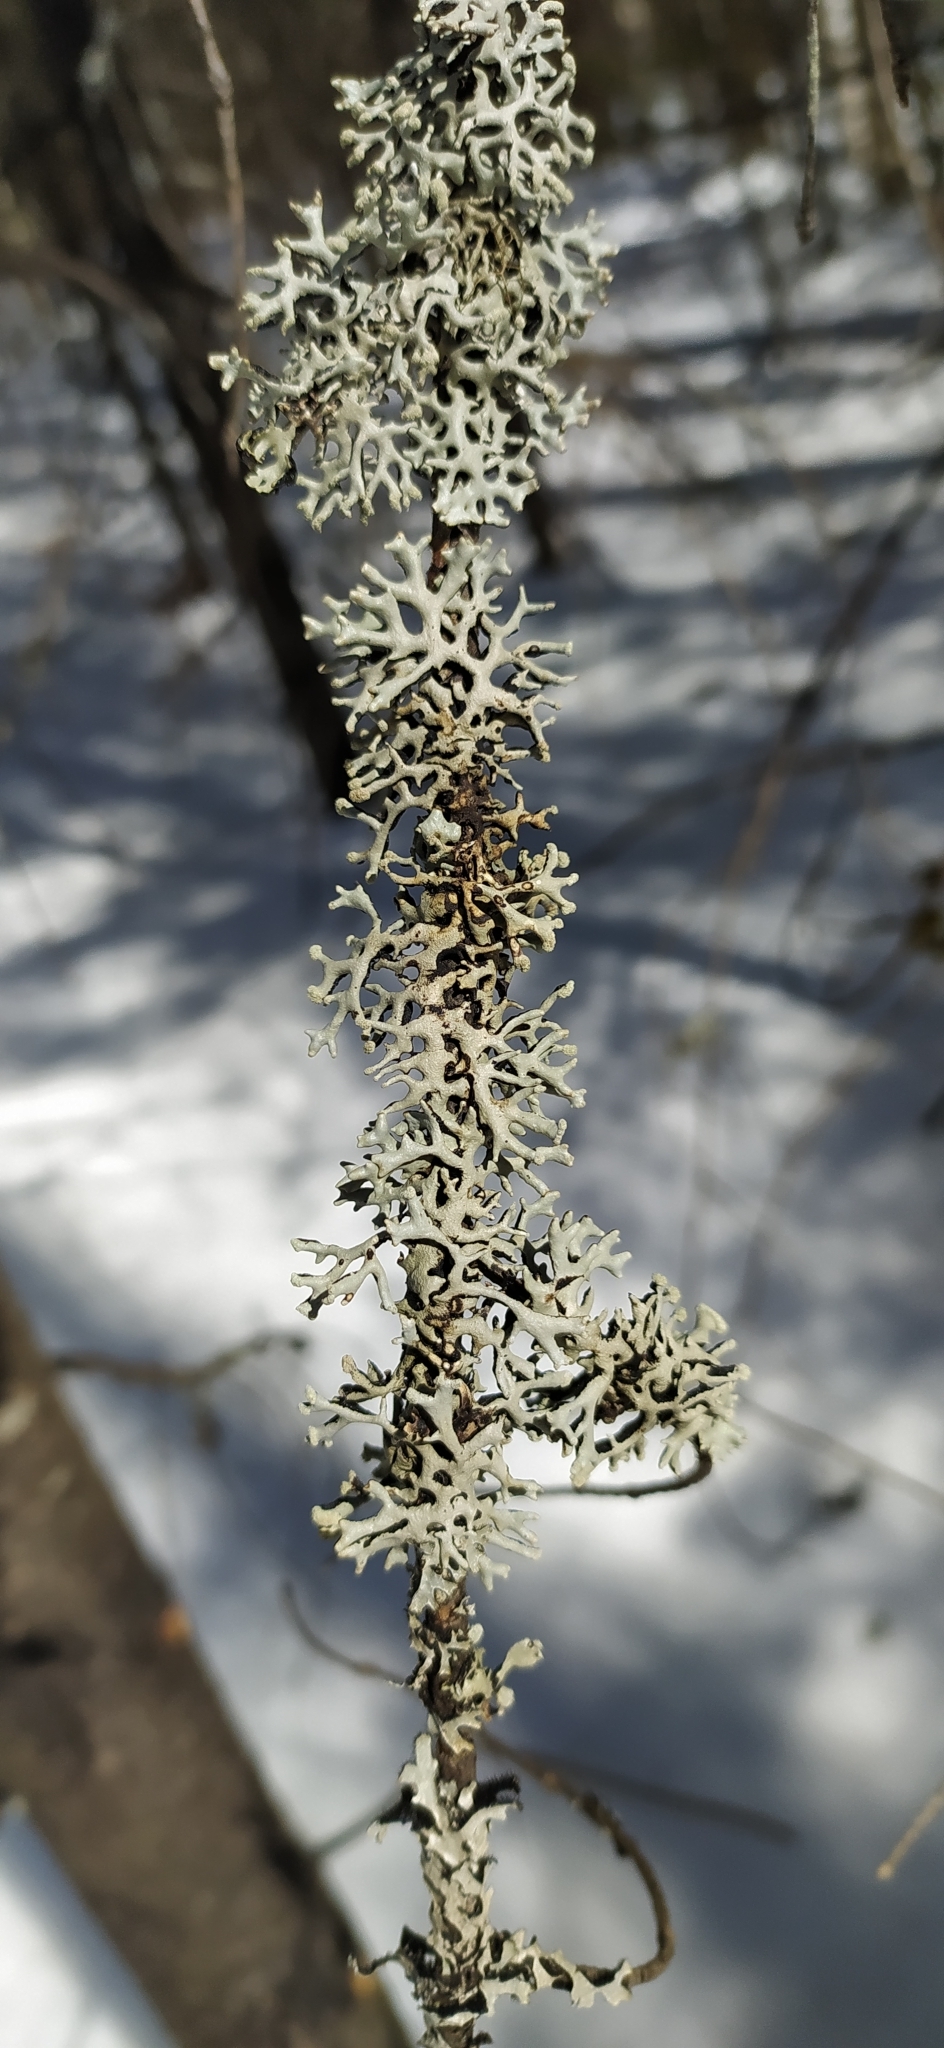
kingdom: Fungi
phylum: Ascomycota
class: Lecanoromycetes
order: Lecanorales
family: Parmeliaceae
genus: Hypogymnia
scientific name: Hypogymnia tubulosa
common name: Powder-headed tube lichen
